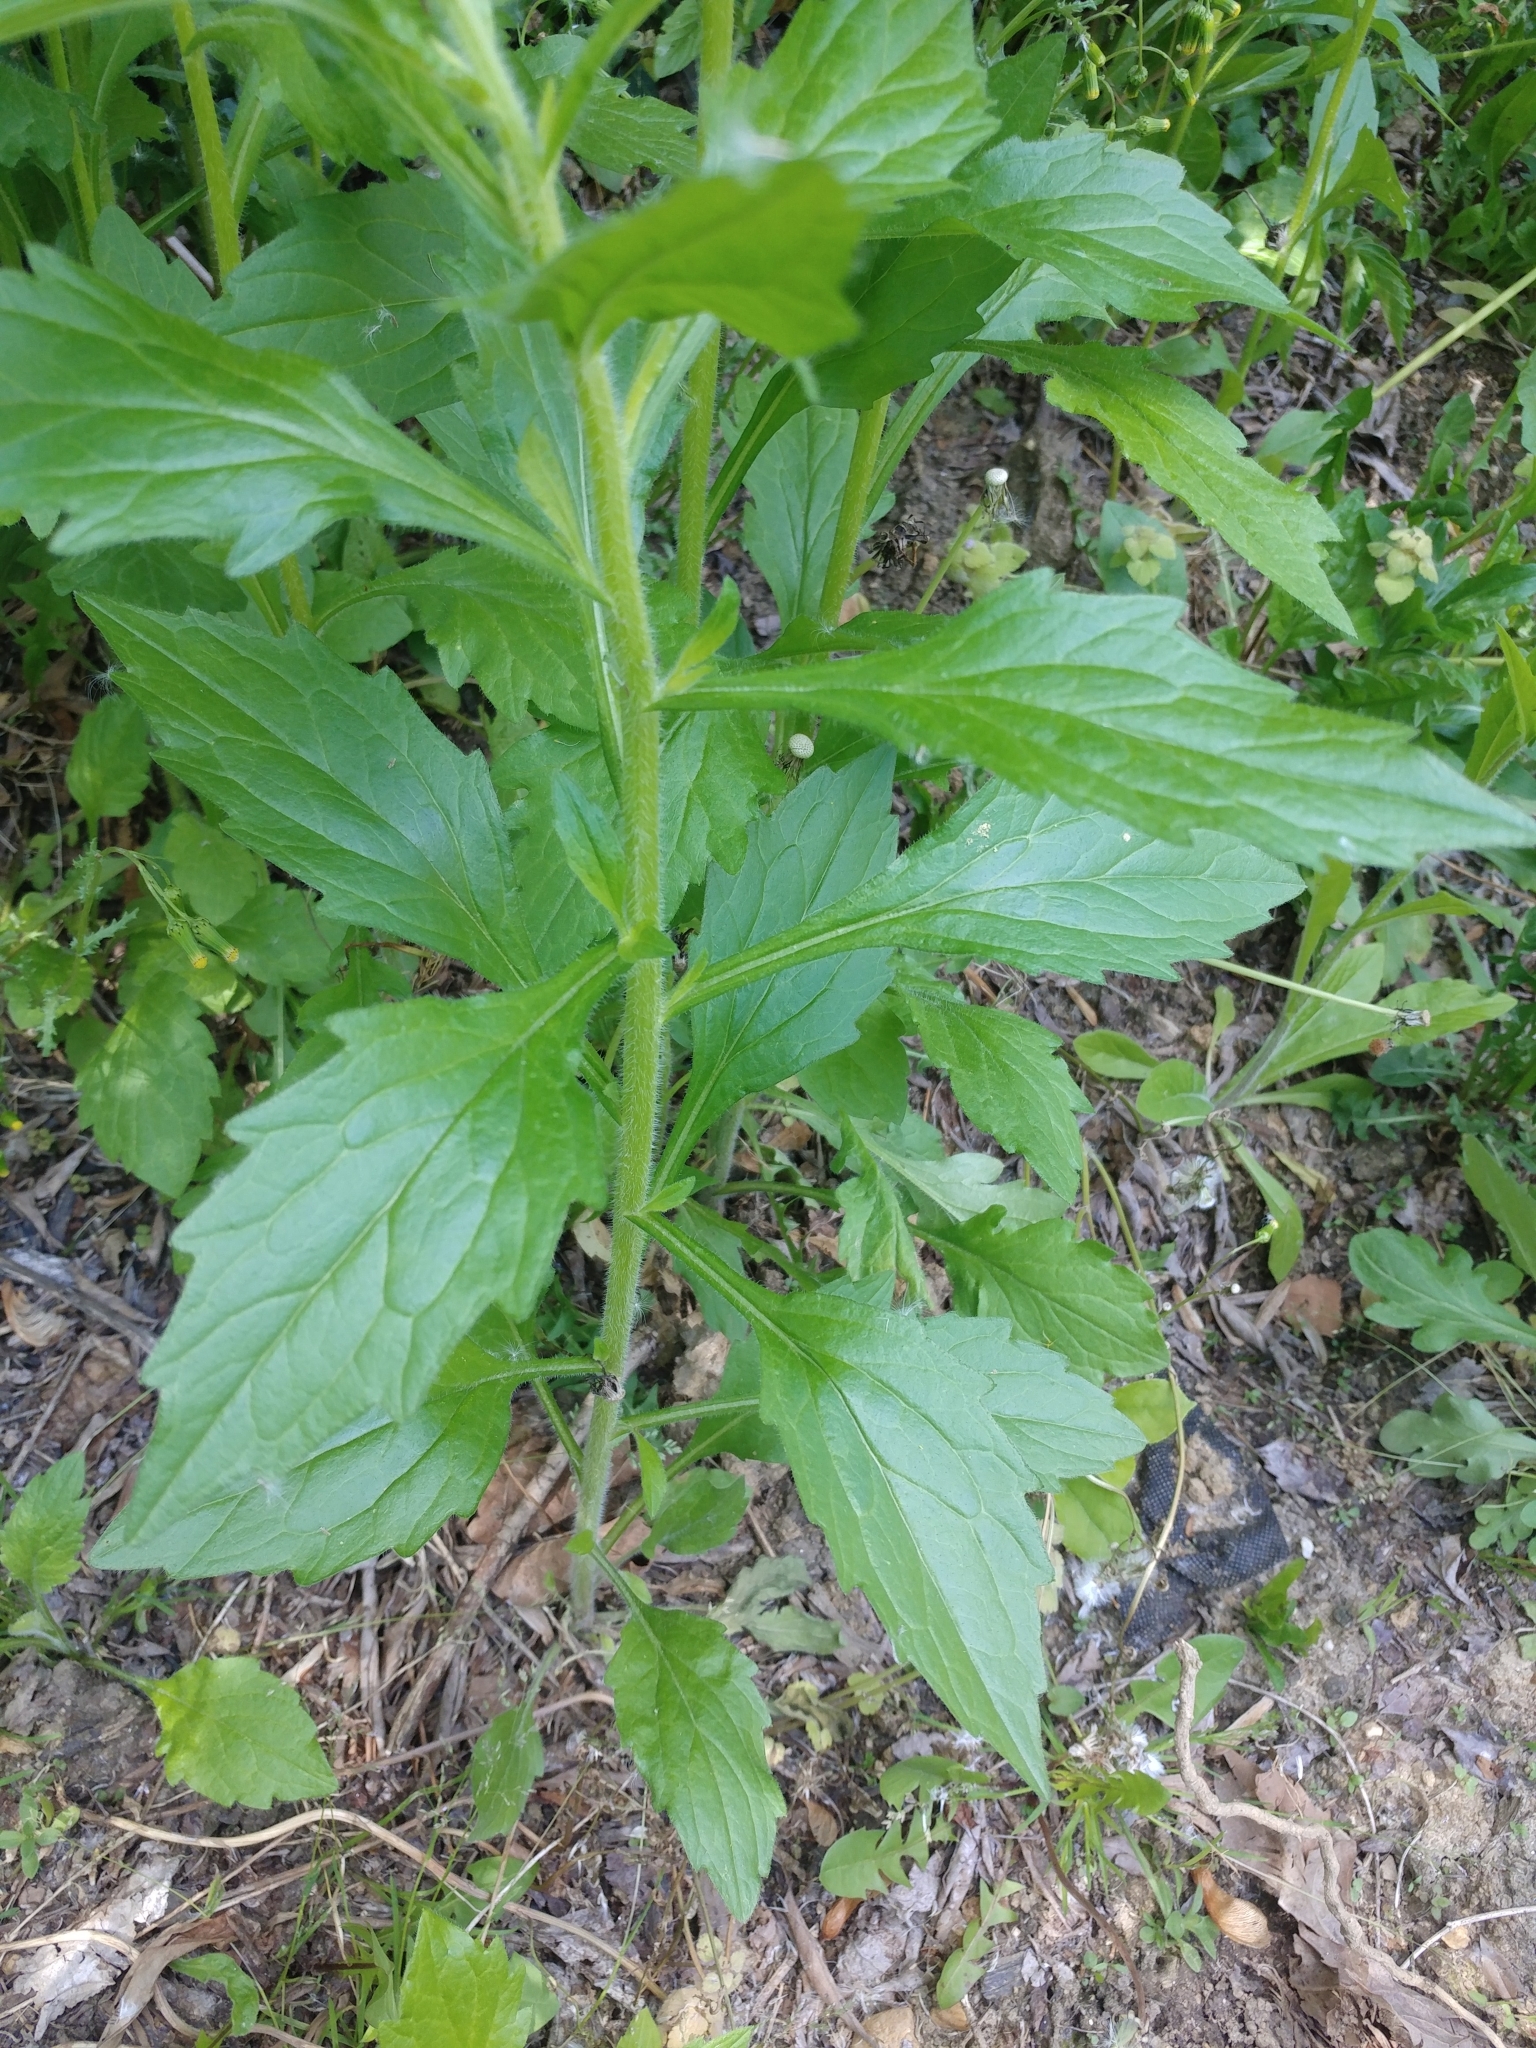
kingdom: Plantae
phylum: Tracheophyta
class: Magnoliopsida
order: Asterales
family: Asteraceae
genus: Erigeron
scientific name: Erigeron annuus
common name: Tall fleabane
